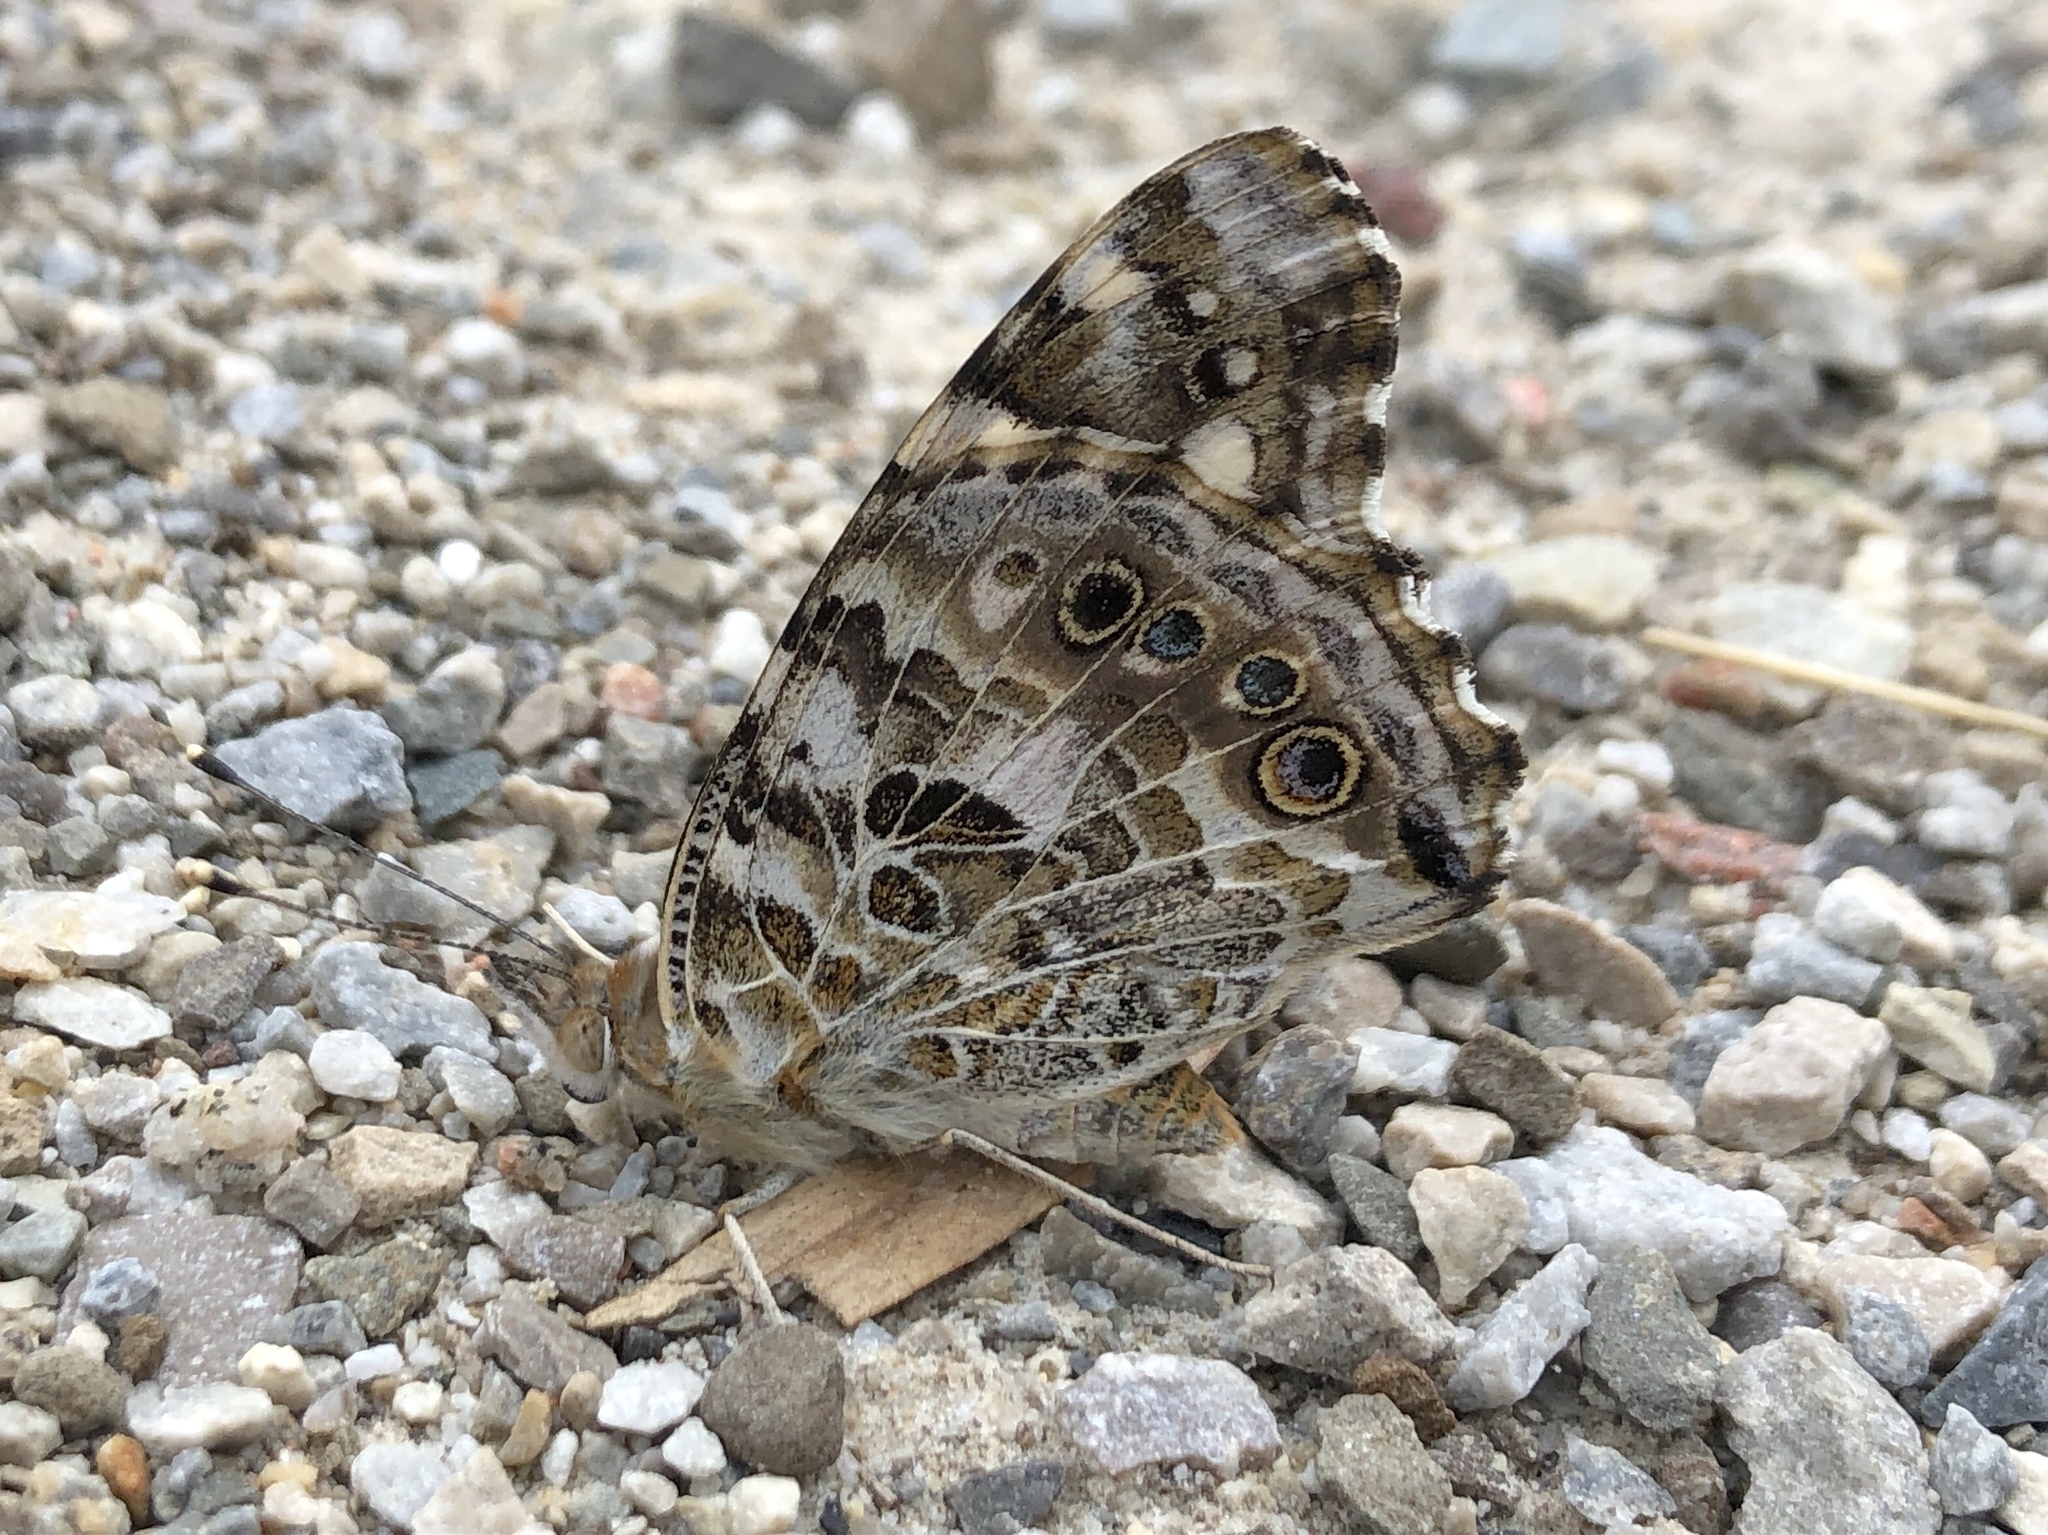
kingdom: Animalia
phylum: Arthropoda
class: Insecta
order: Lepidoptera
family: Nymphalidae
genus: Vanessa
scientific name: Vanessa cardui
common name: Painted lady
